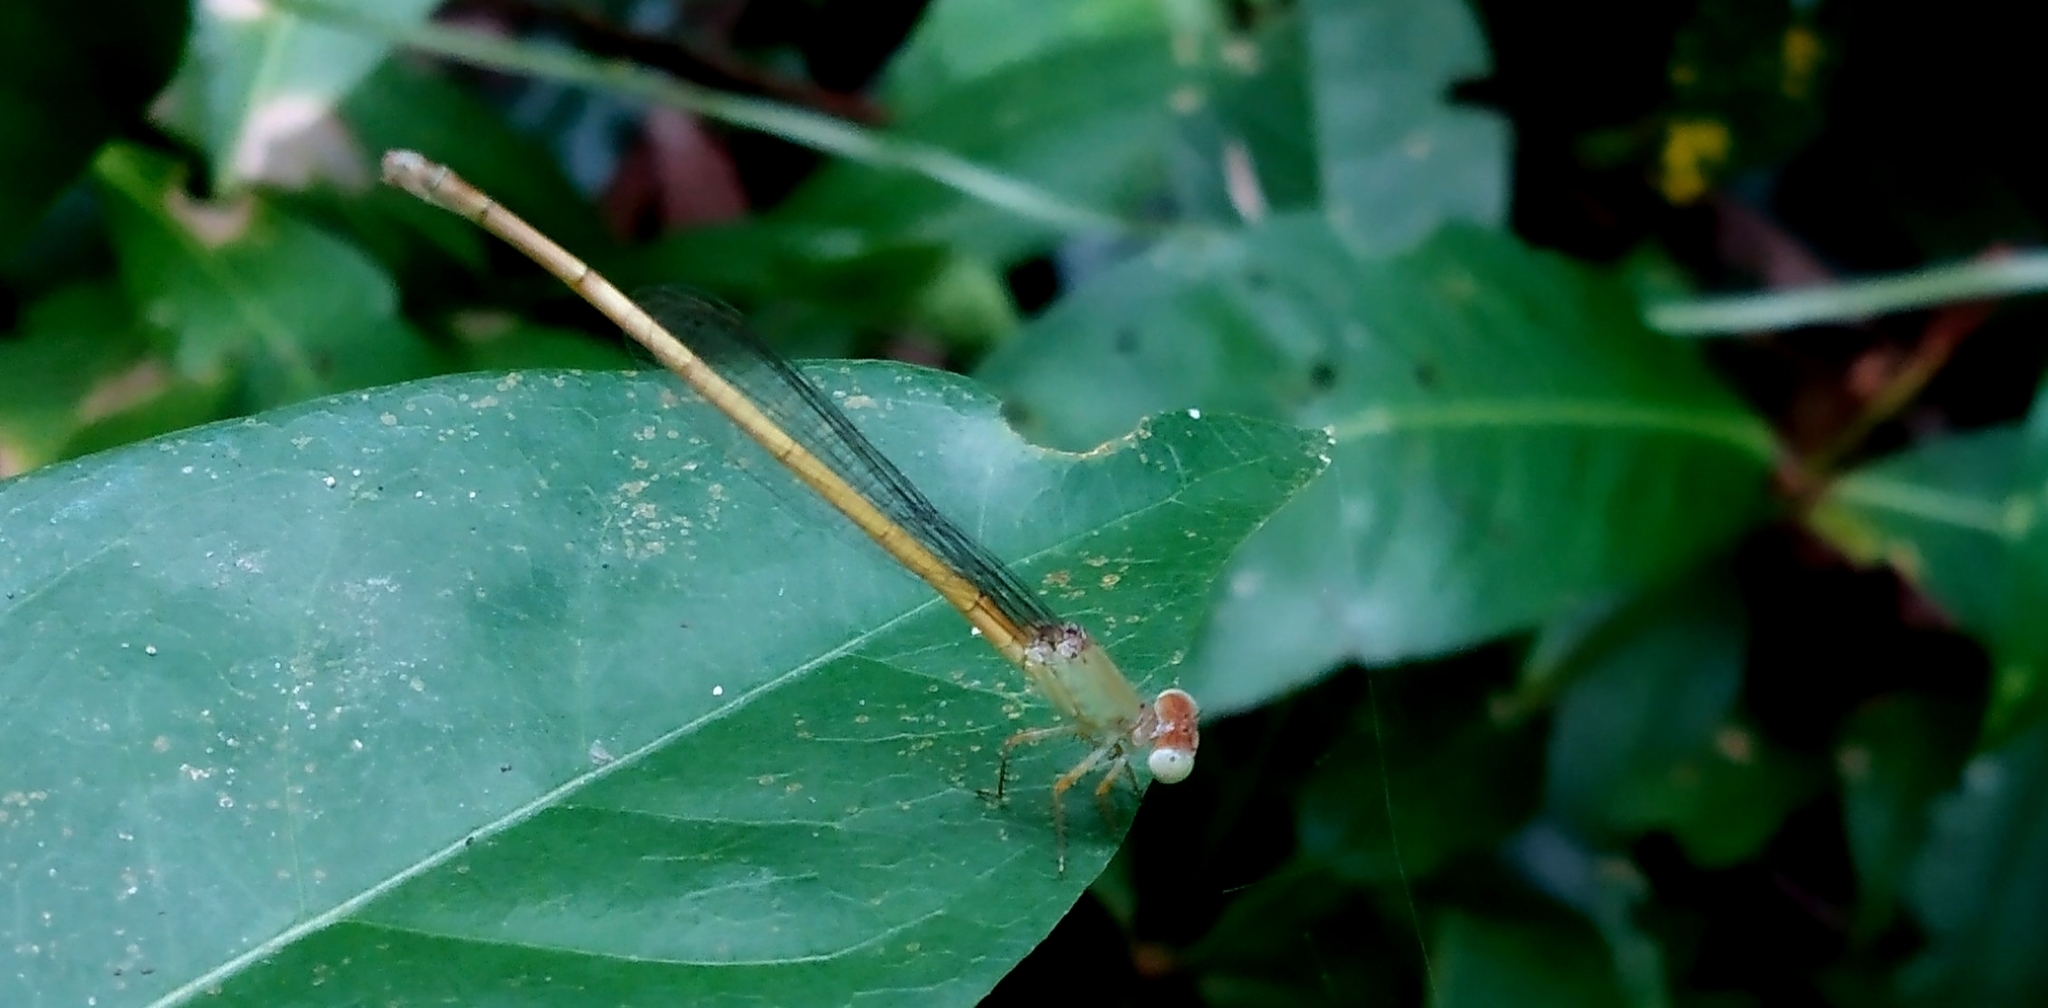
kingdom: Animalia
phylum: Arthropoda
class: Insecta
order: Odonata
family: Coenagrionidae
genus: Ceriagrion
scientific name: Ceriagrion coromandelianum
